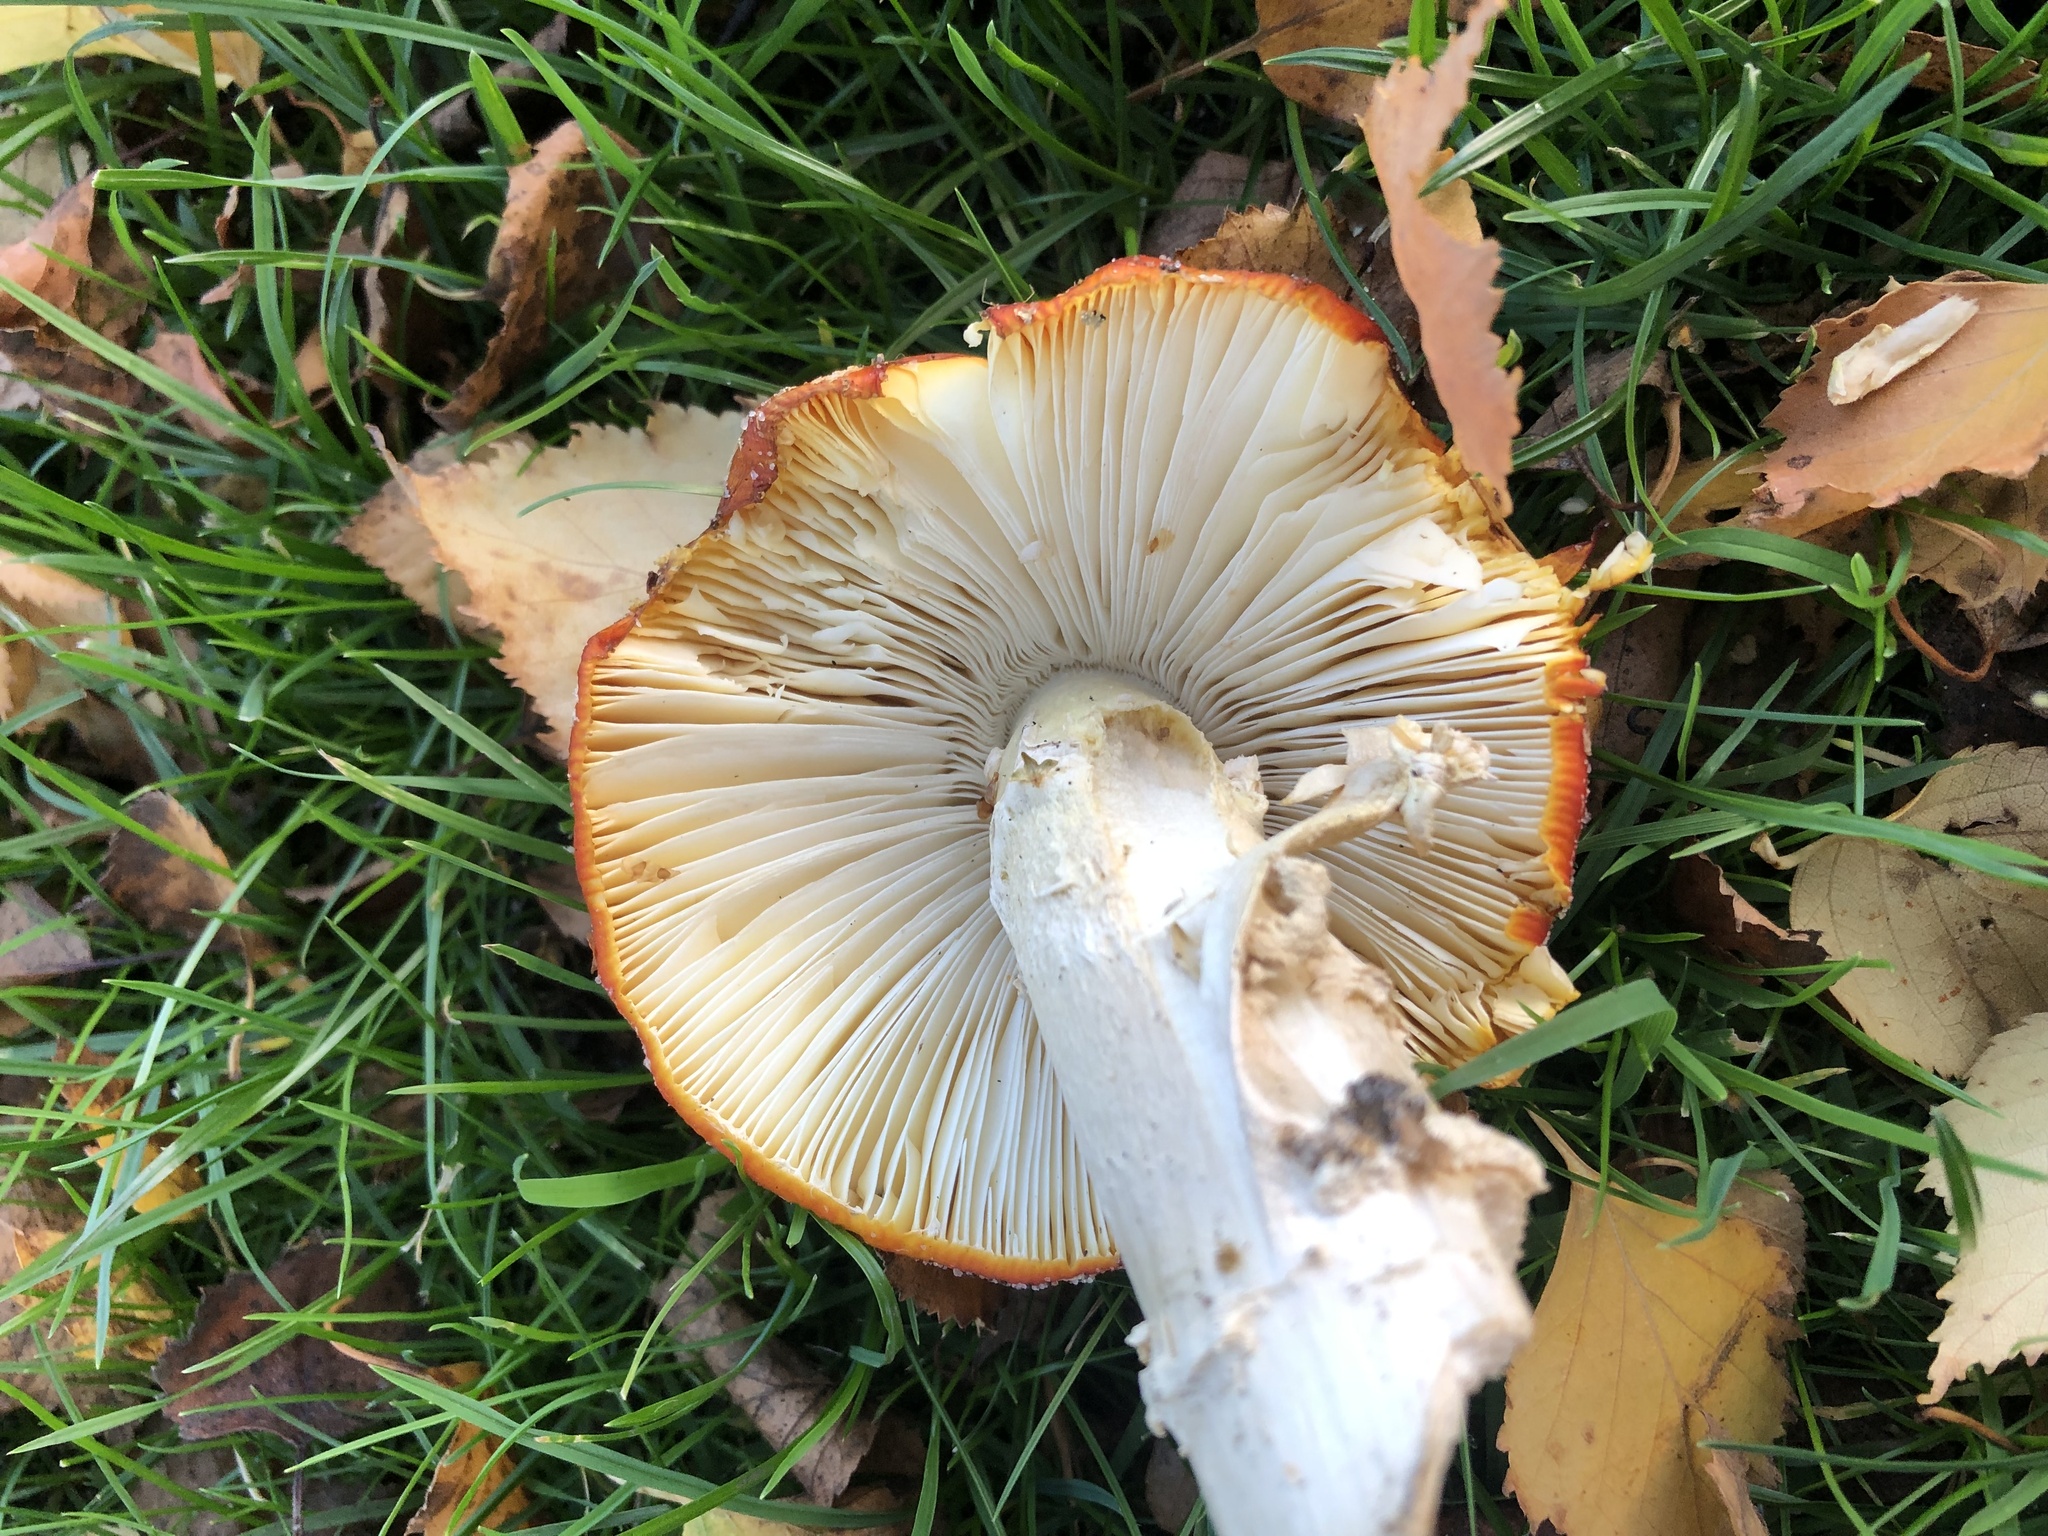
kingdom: Fungi
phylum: Basidiomycota
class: Agaricomycetes
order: Agaricales
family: Amanitaceae
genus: Amanita
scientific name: Amanita muscaria
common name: Fly agaric
